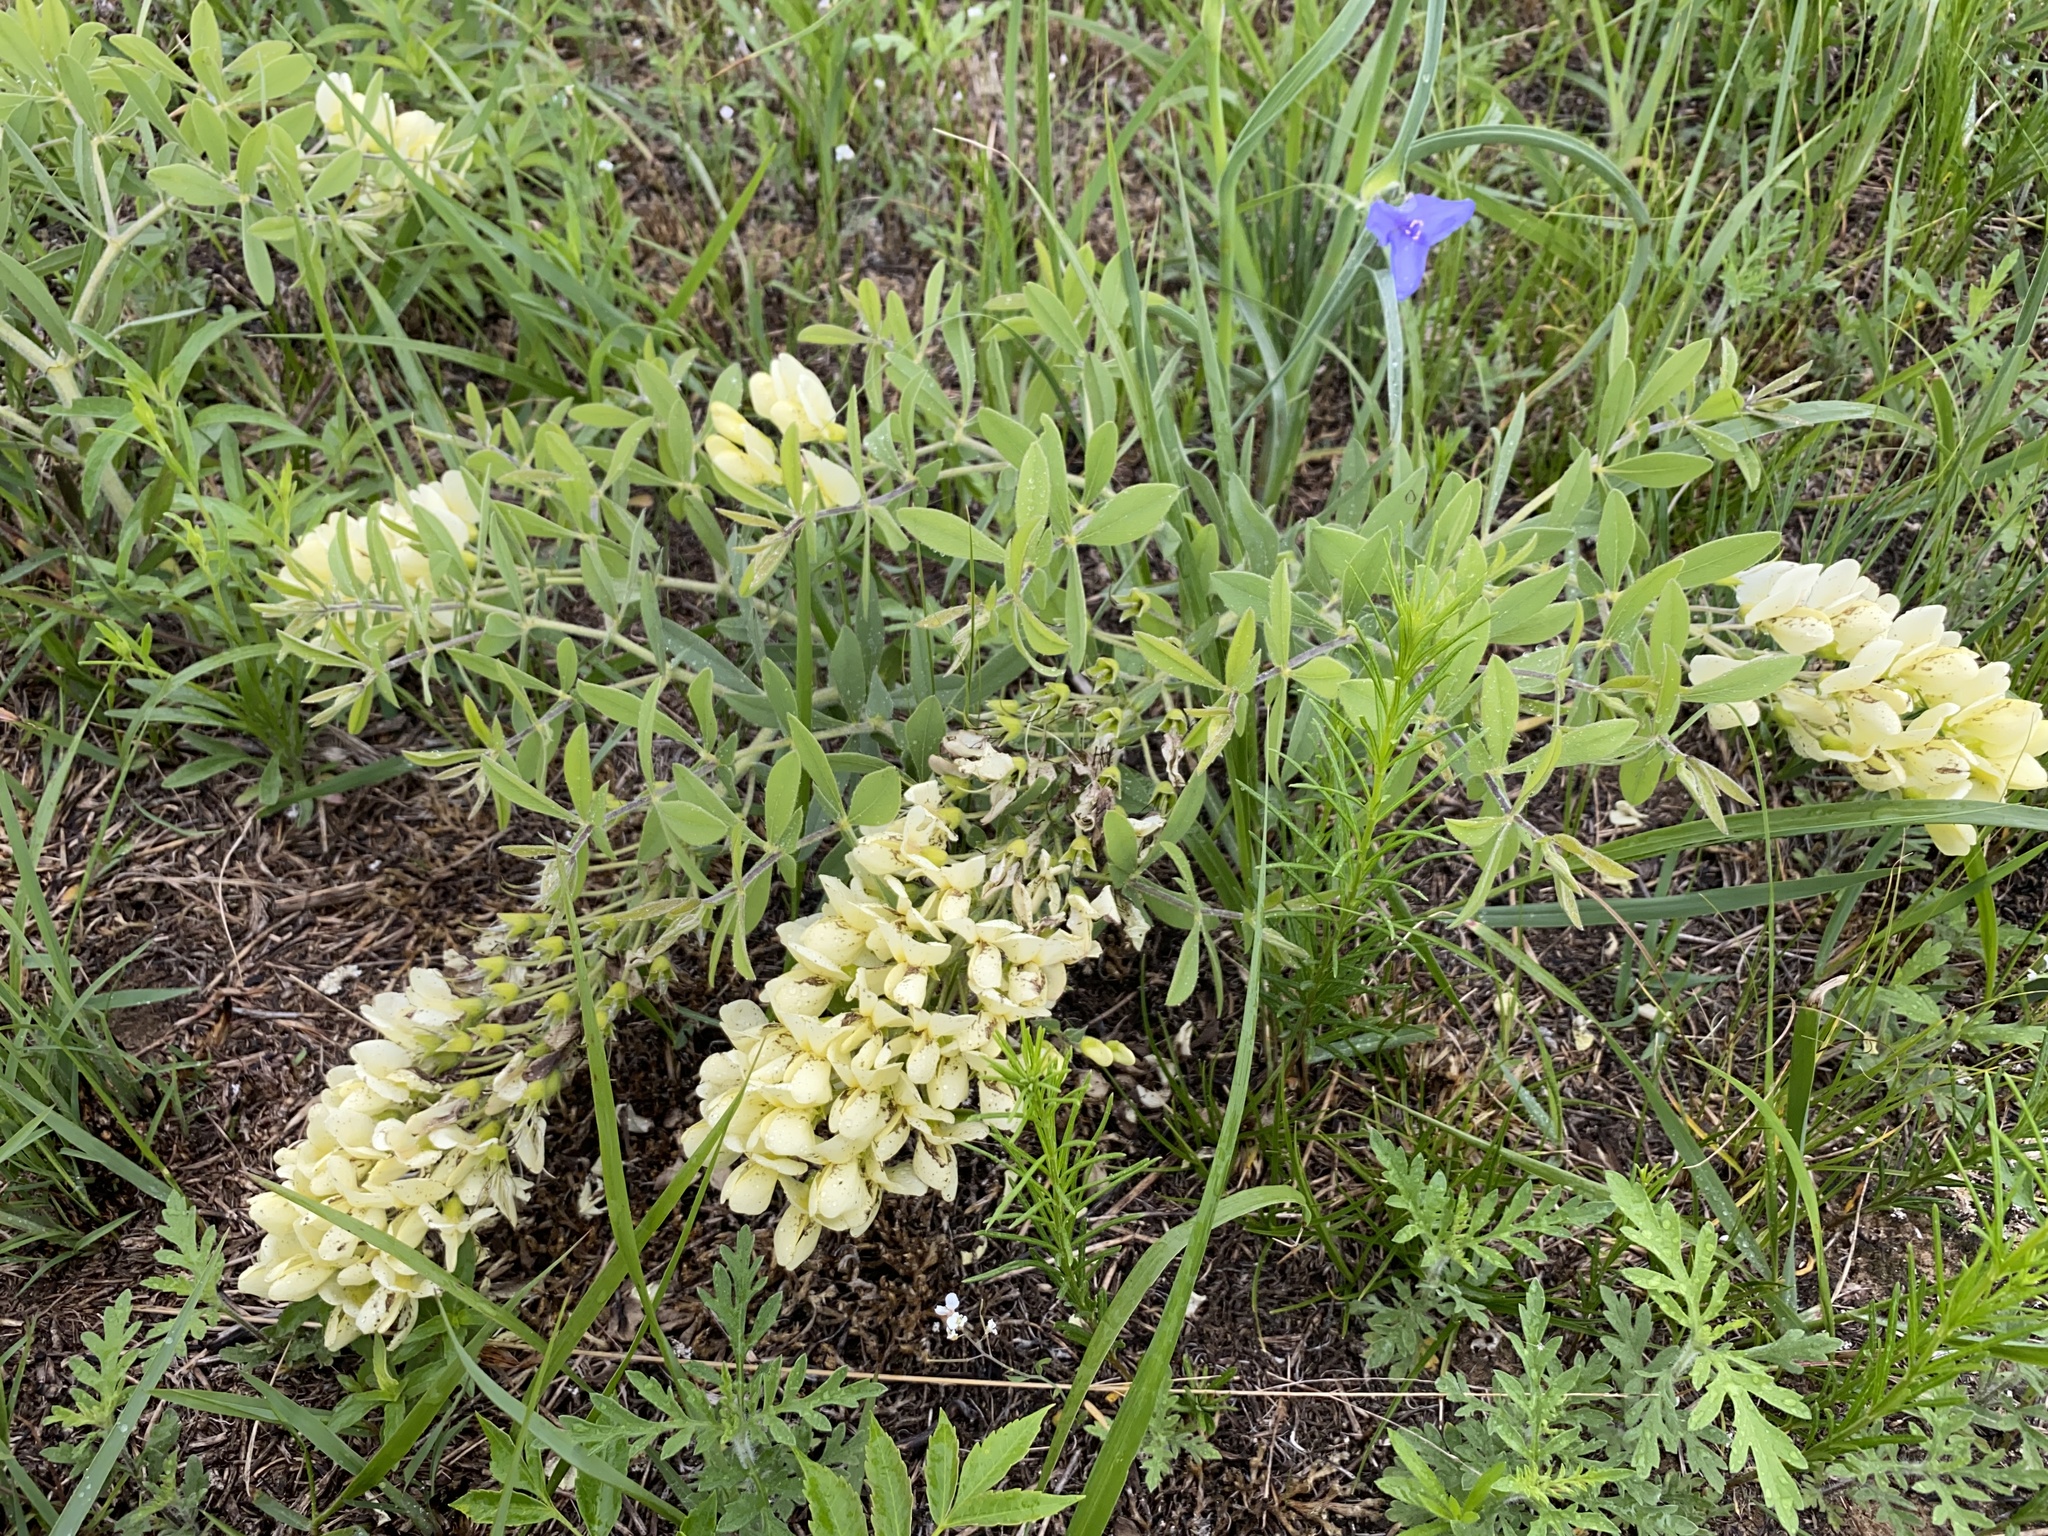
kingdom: Plantae
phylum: Tracheophyta
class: Magnoliopsida
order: Fabales
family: Fabaceae
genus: Baptisia
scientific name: Baptisia bracteata
